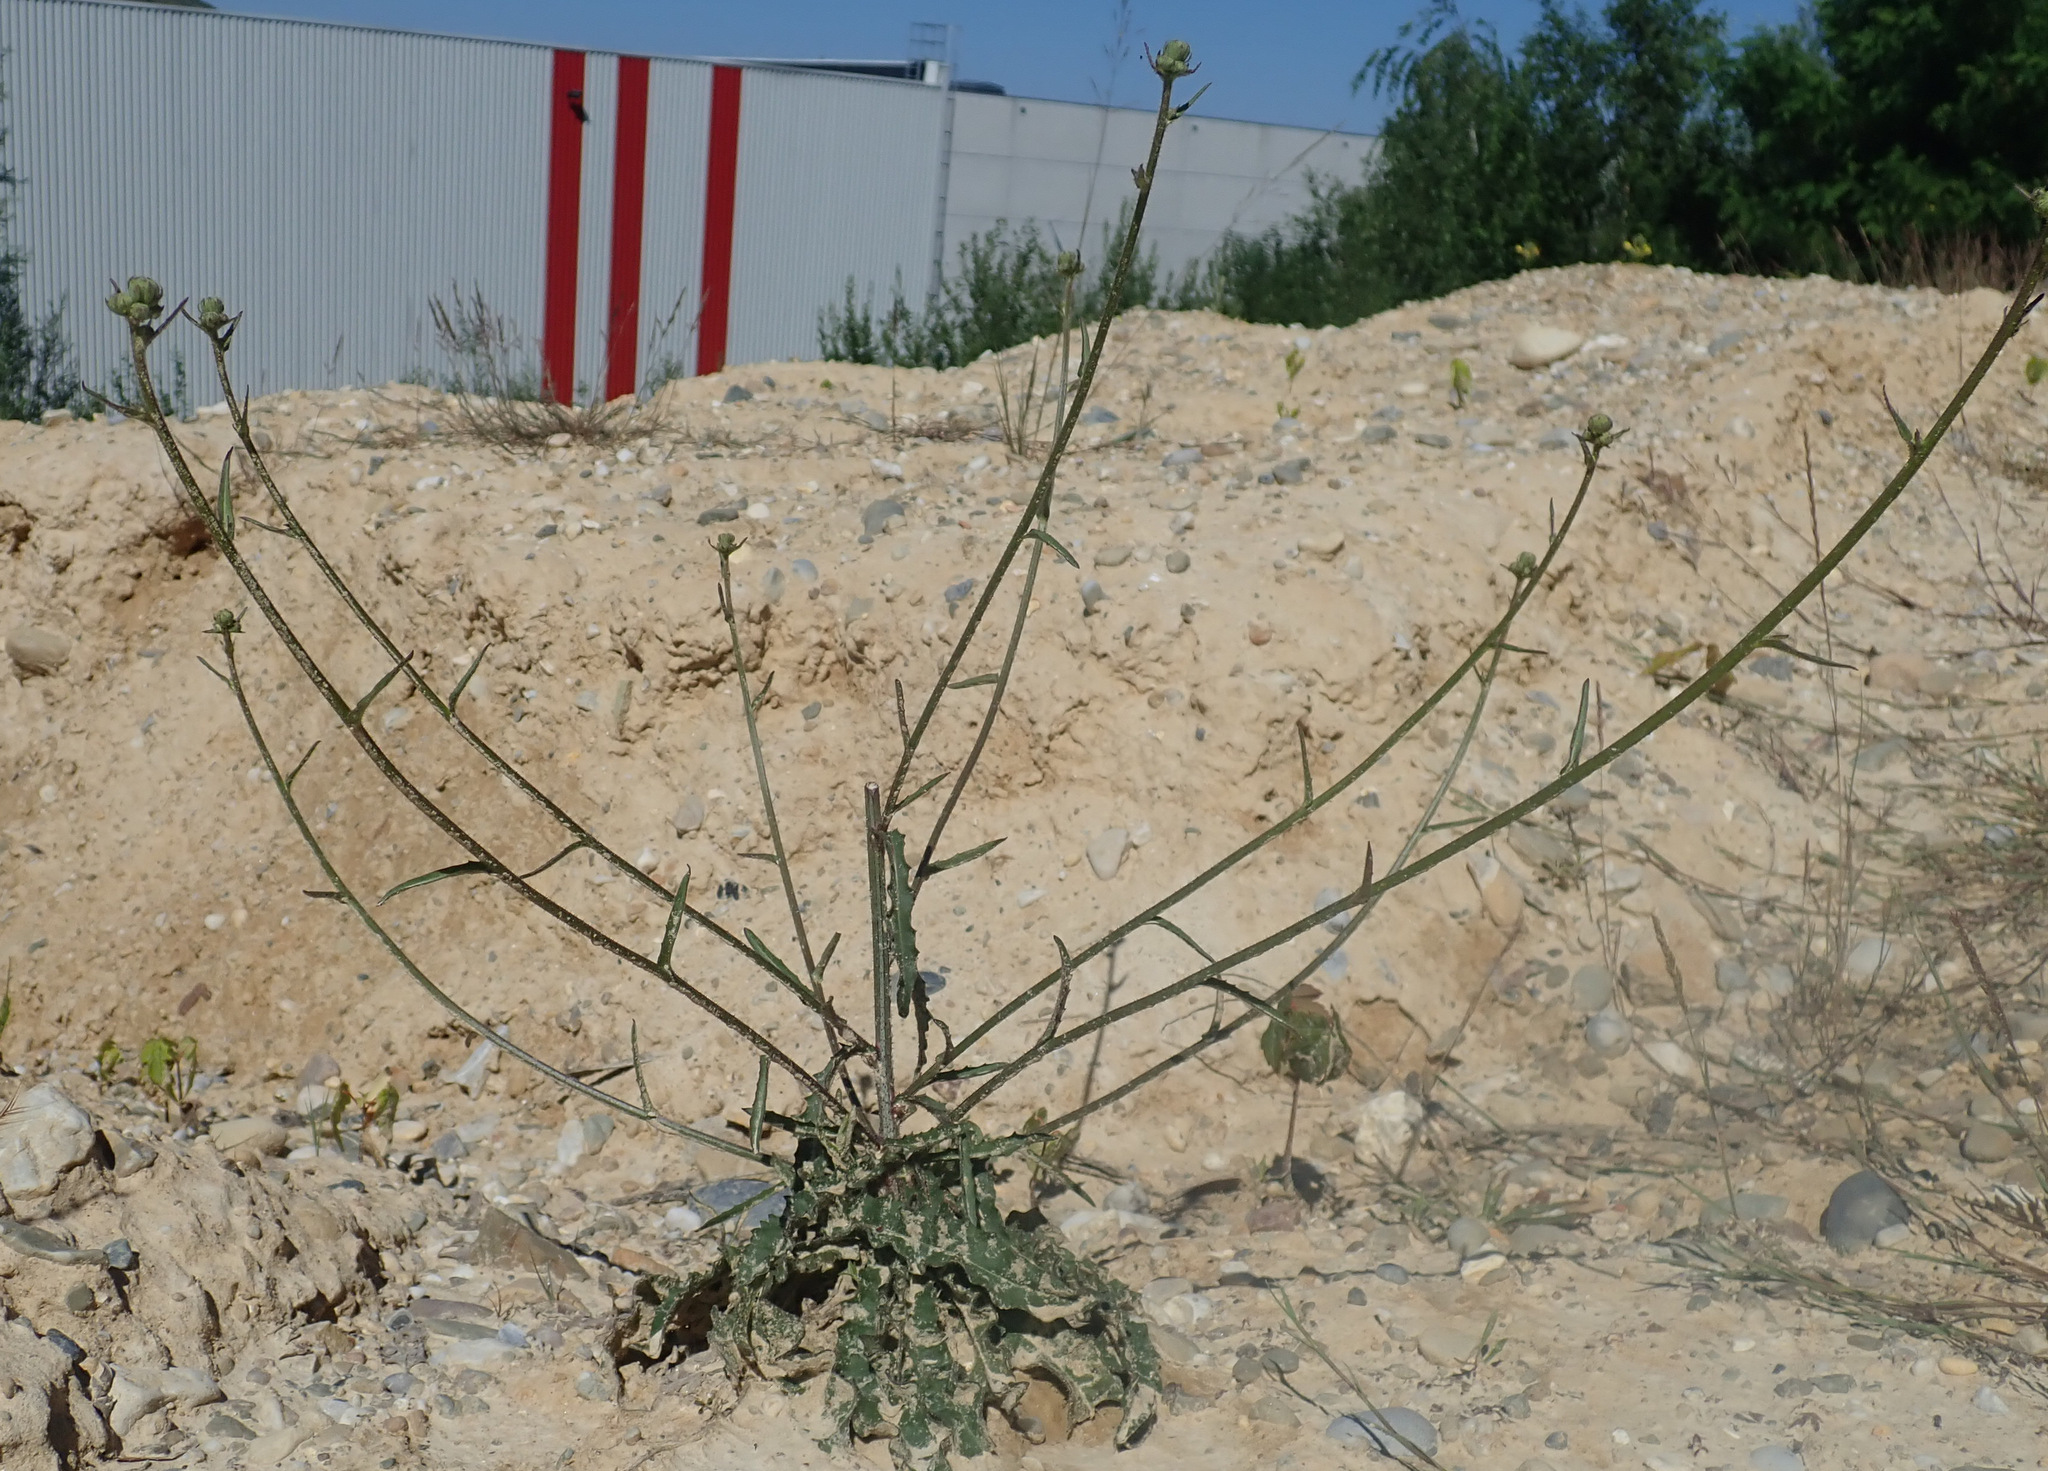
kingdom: Plantae
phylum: Tracheophyta
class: Magnoliopsida
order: Asterales
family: Asteraceae
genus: Picris
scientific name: Picris hieracioides
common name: Hawkweed oxtongue
